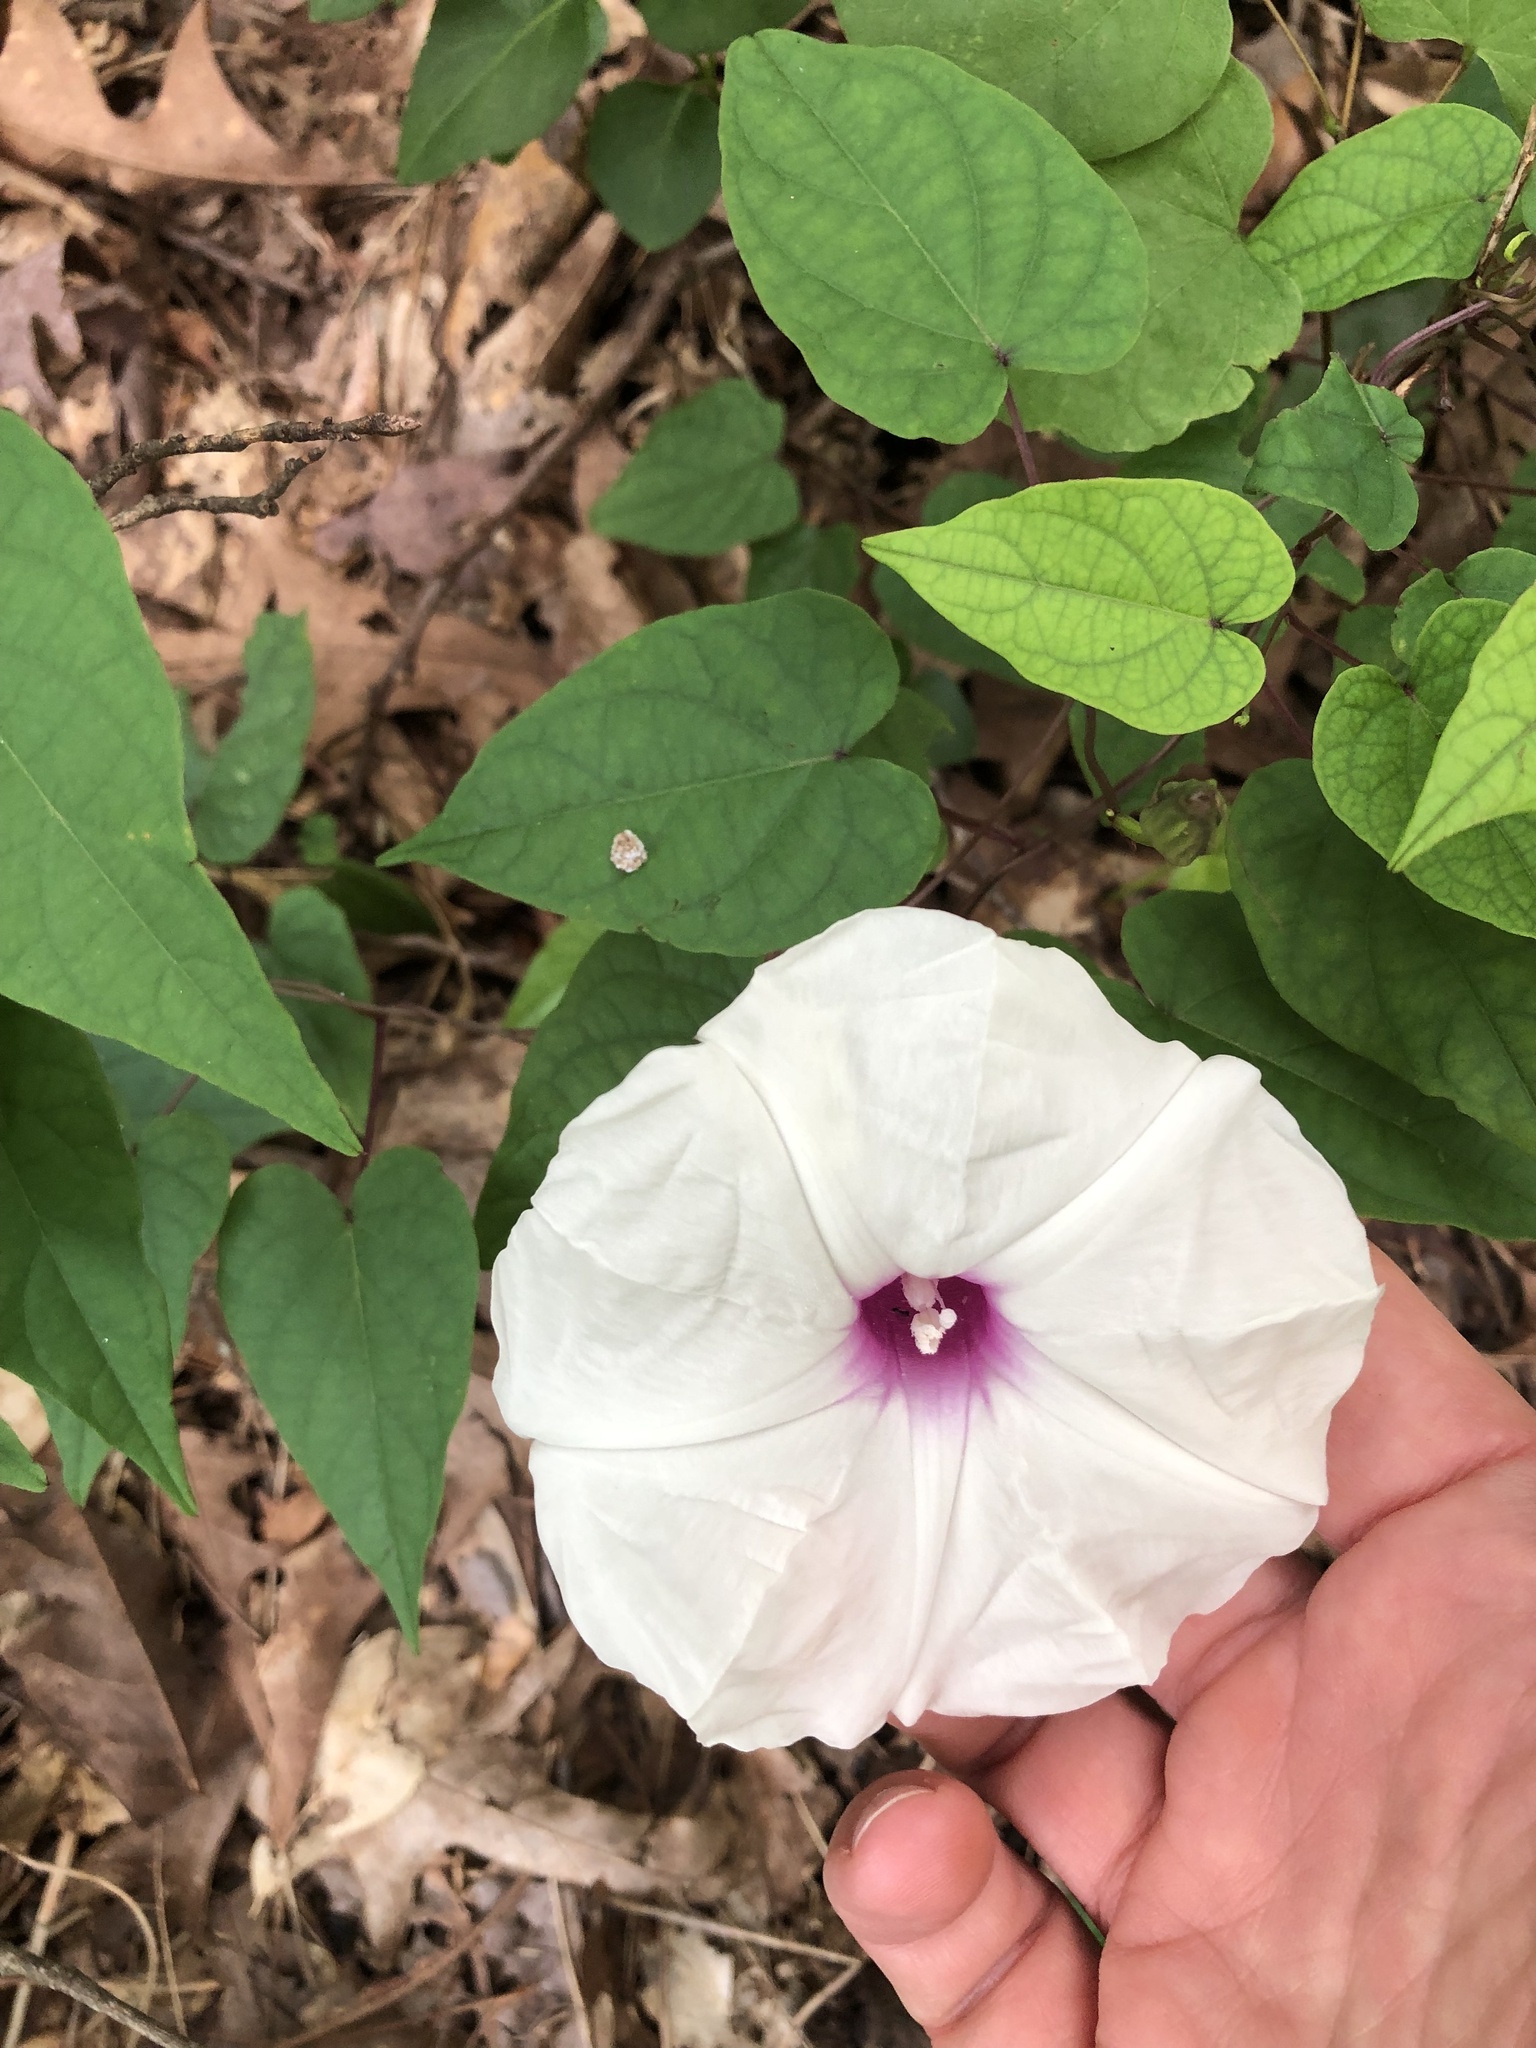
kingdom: Plantae
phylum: Tracheophyta
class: Magnoliopsida
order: Solanales
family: Convolvulaceae
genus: Ipomoea
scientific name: Ipomoea pandurata
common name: Man-of-the-earth
